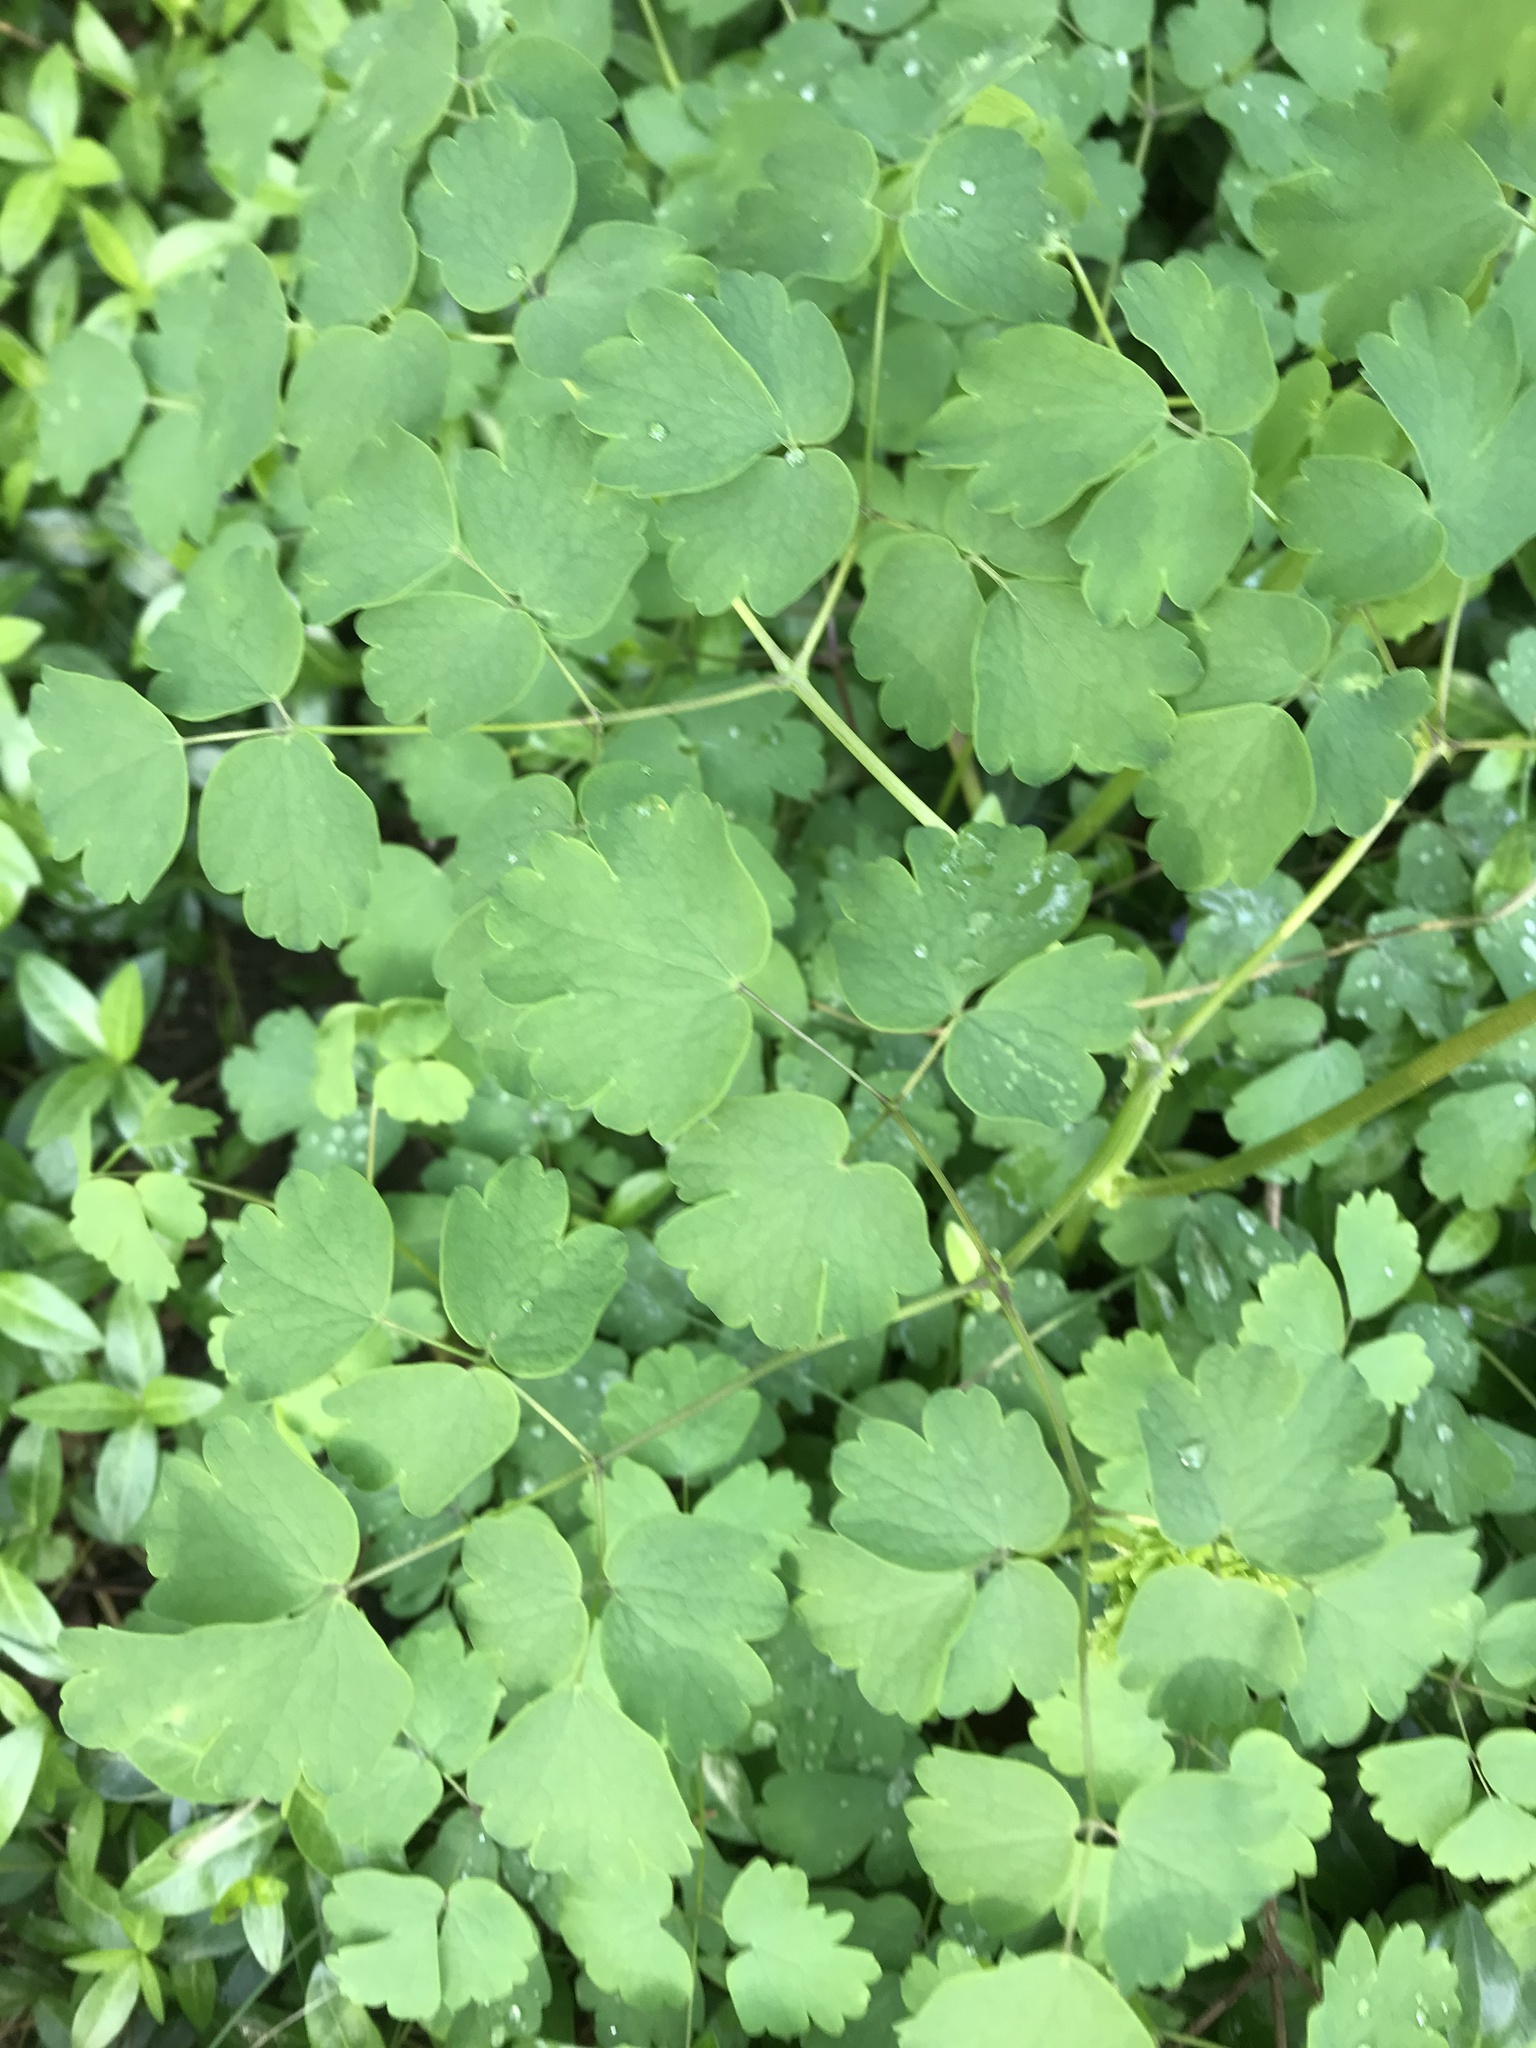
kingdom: Plantae
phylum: Tracheophyta
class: Magnoliopsida
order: Ranunculales
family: Ranunculaceae
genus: Thalictrum
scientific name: Thalictrum dioicum
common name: Early meadow-rue
